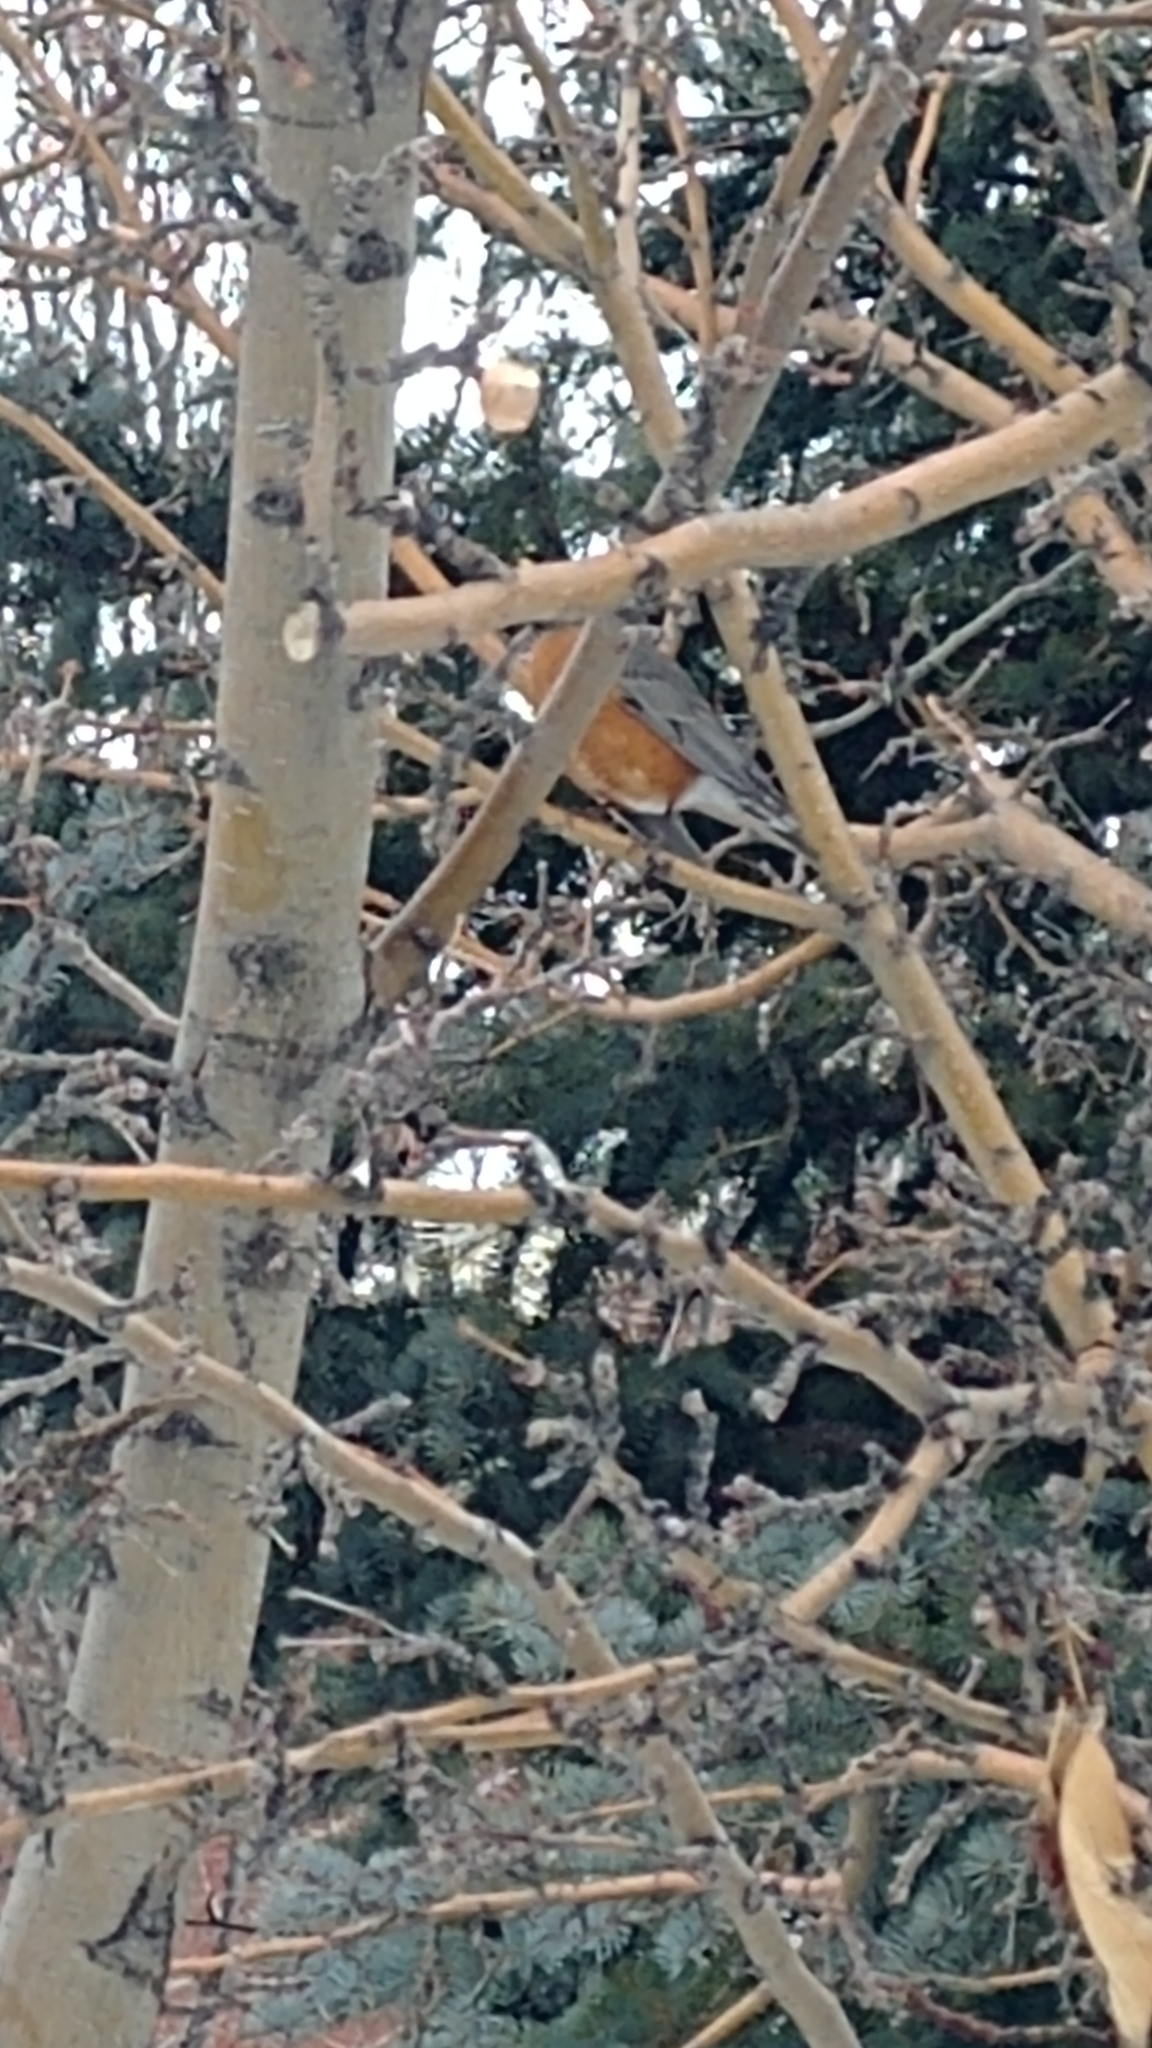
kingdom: Animalia
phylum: Chordata
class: Aves
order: Passeriformes
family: Turdidae
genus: Turdus
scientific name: Turdus migratorius
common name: American robin
